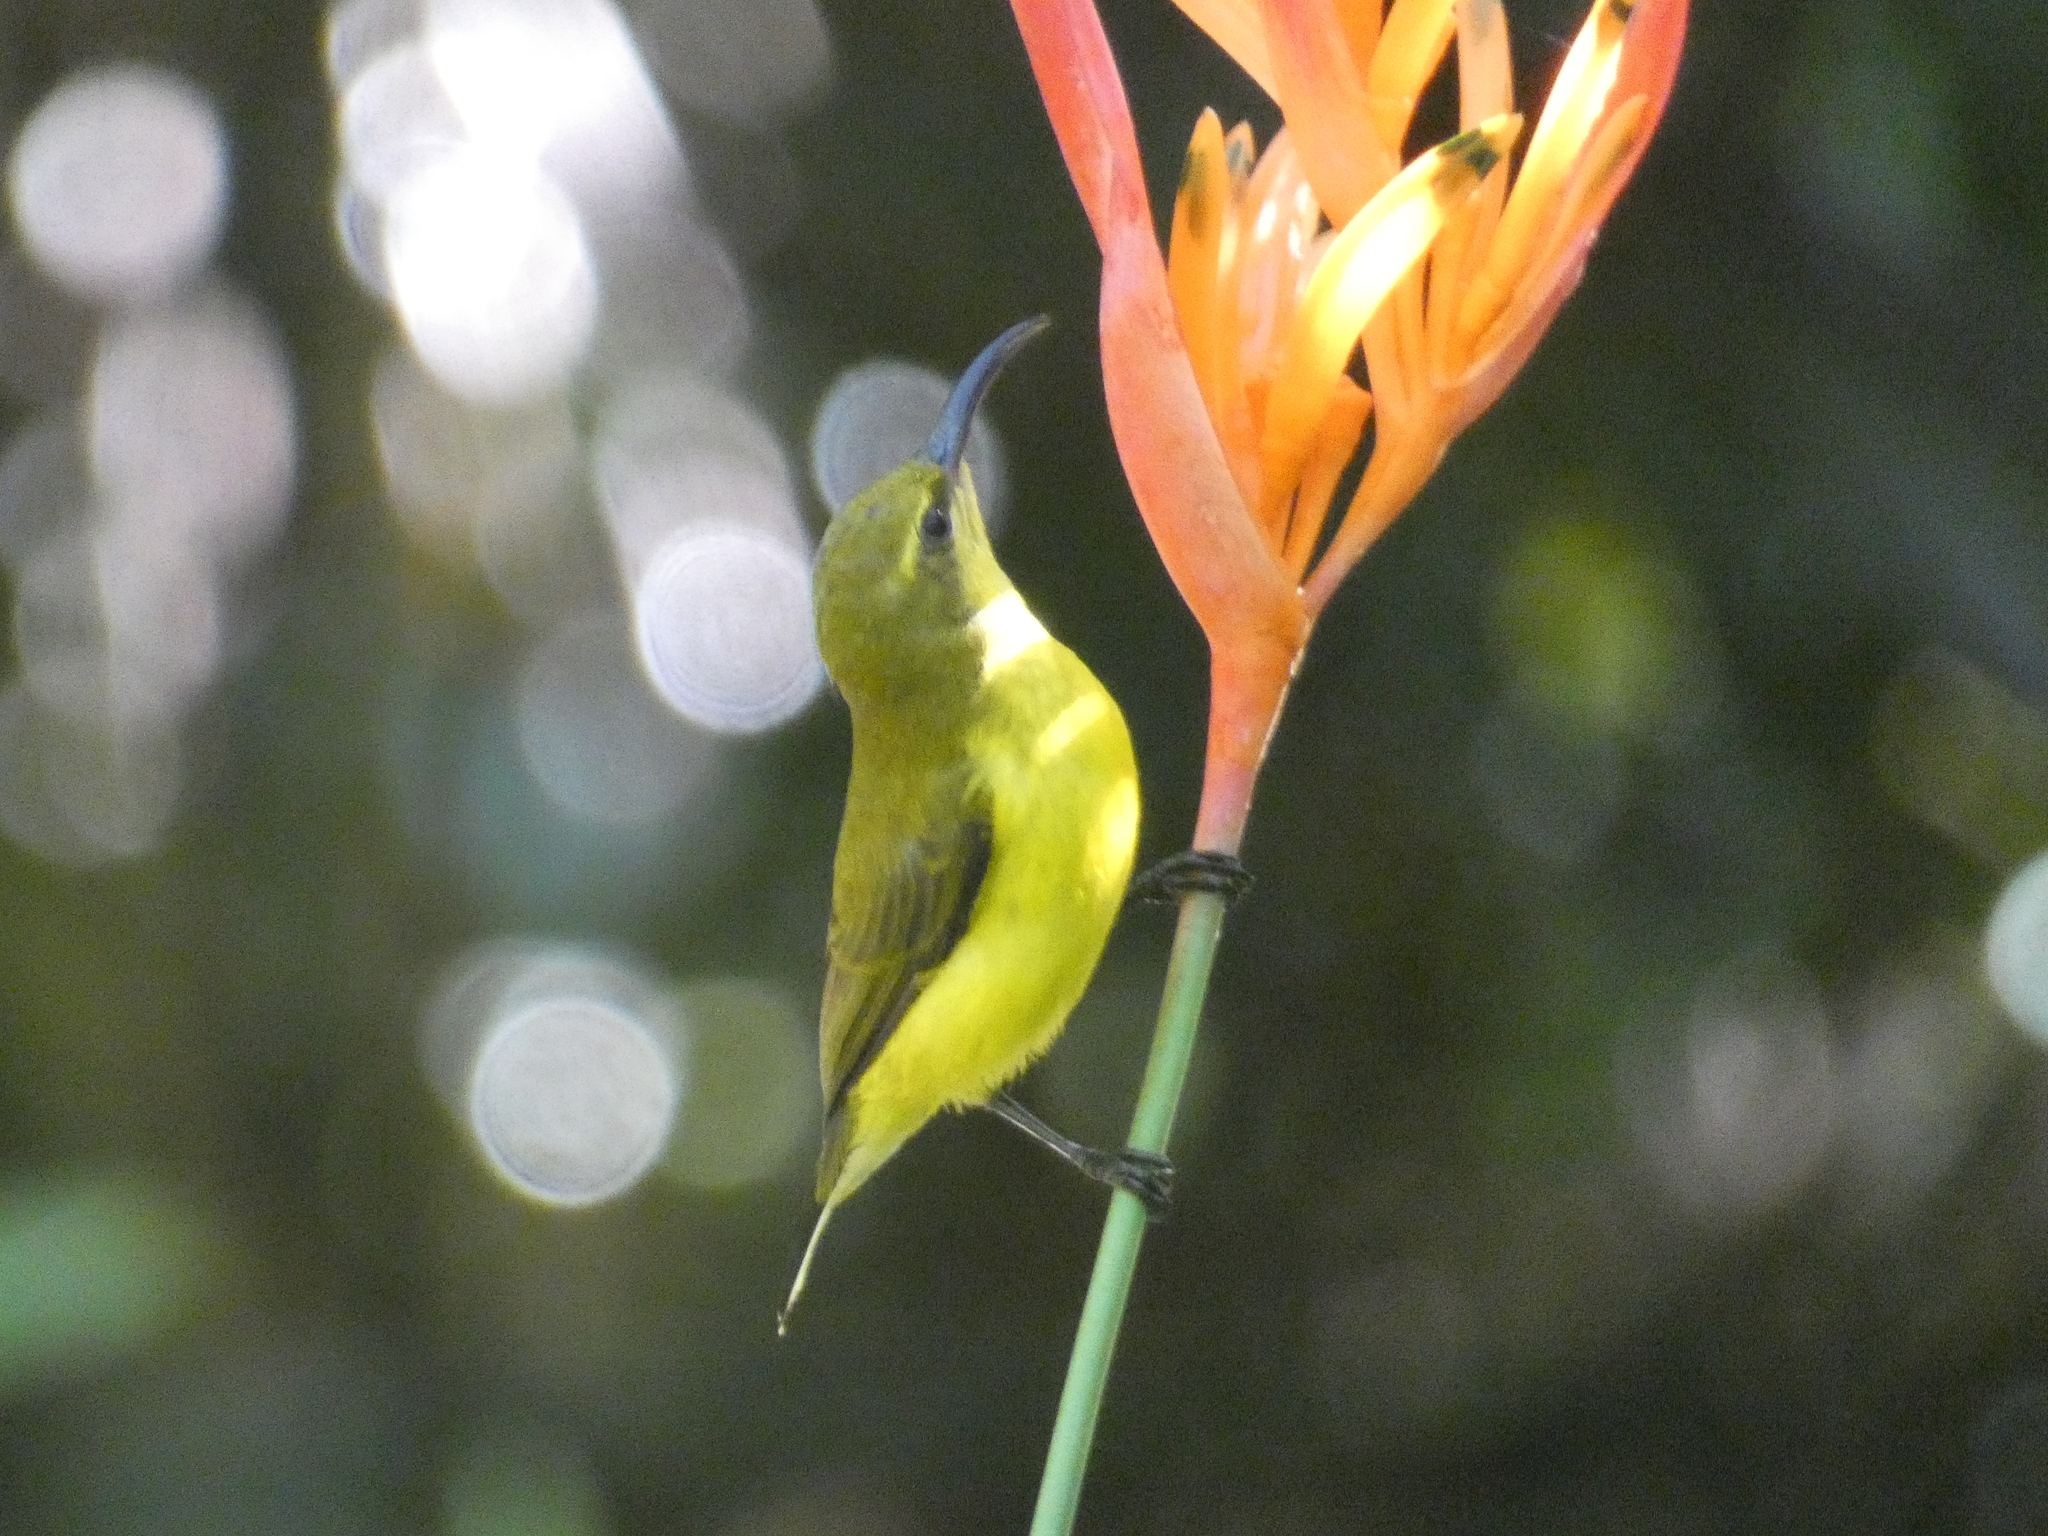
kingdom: Animalia
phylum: Chordata
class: Aves
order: Passeriformes
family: Nectariniidae
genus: Cinnyris
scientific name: Cinnyris
